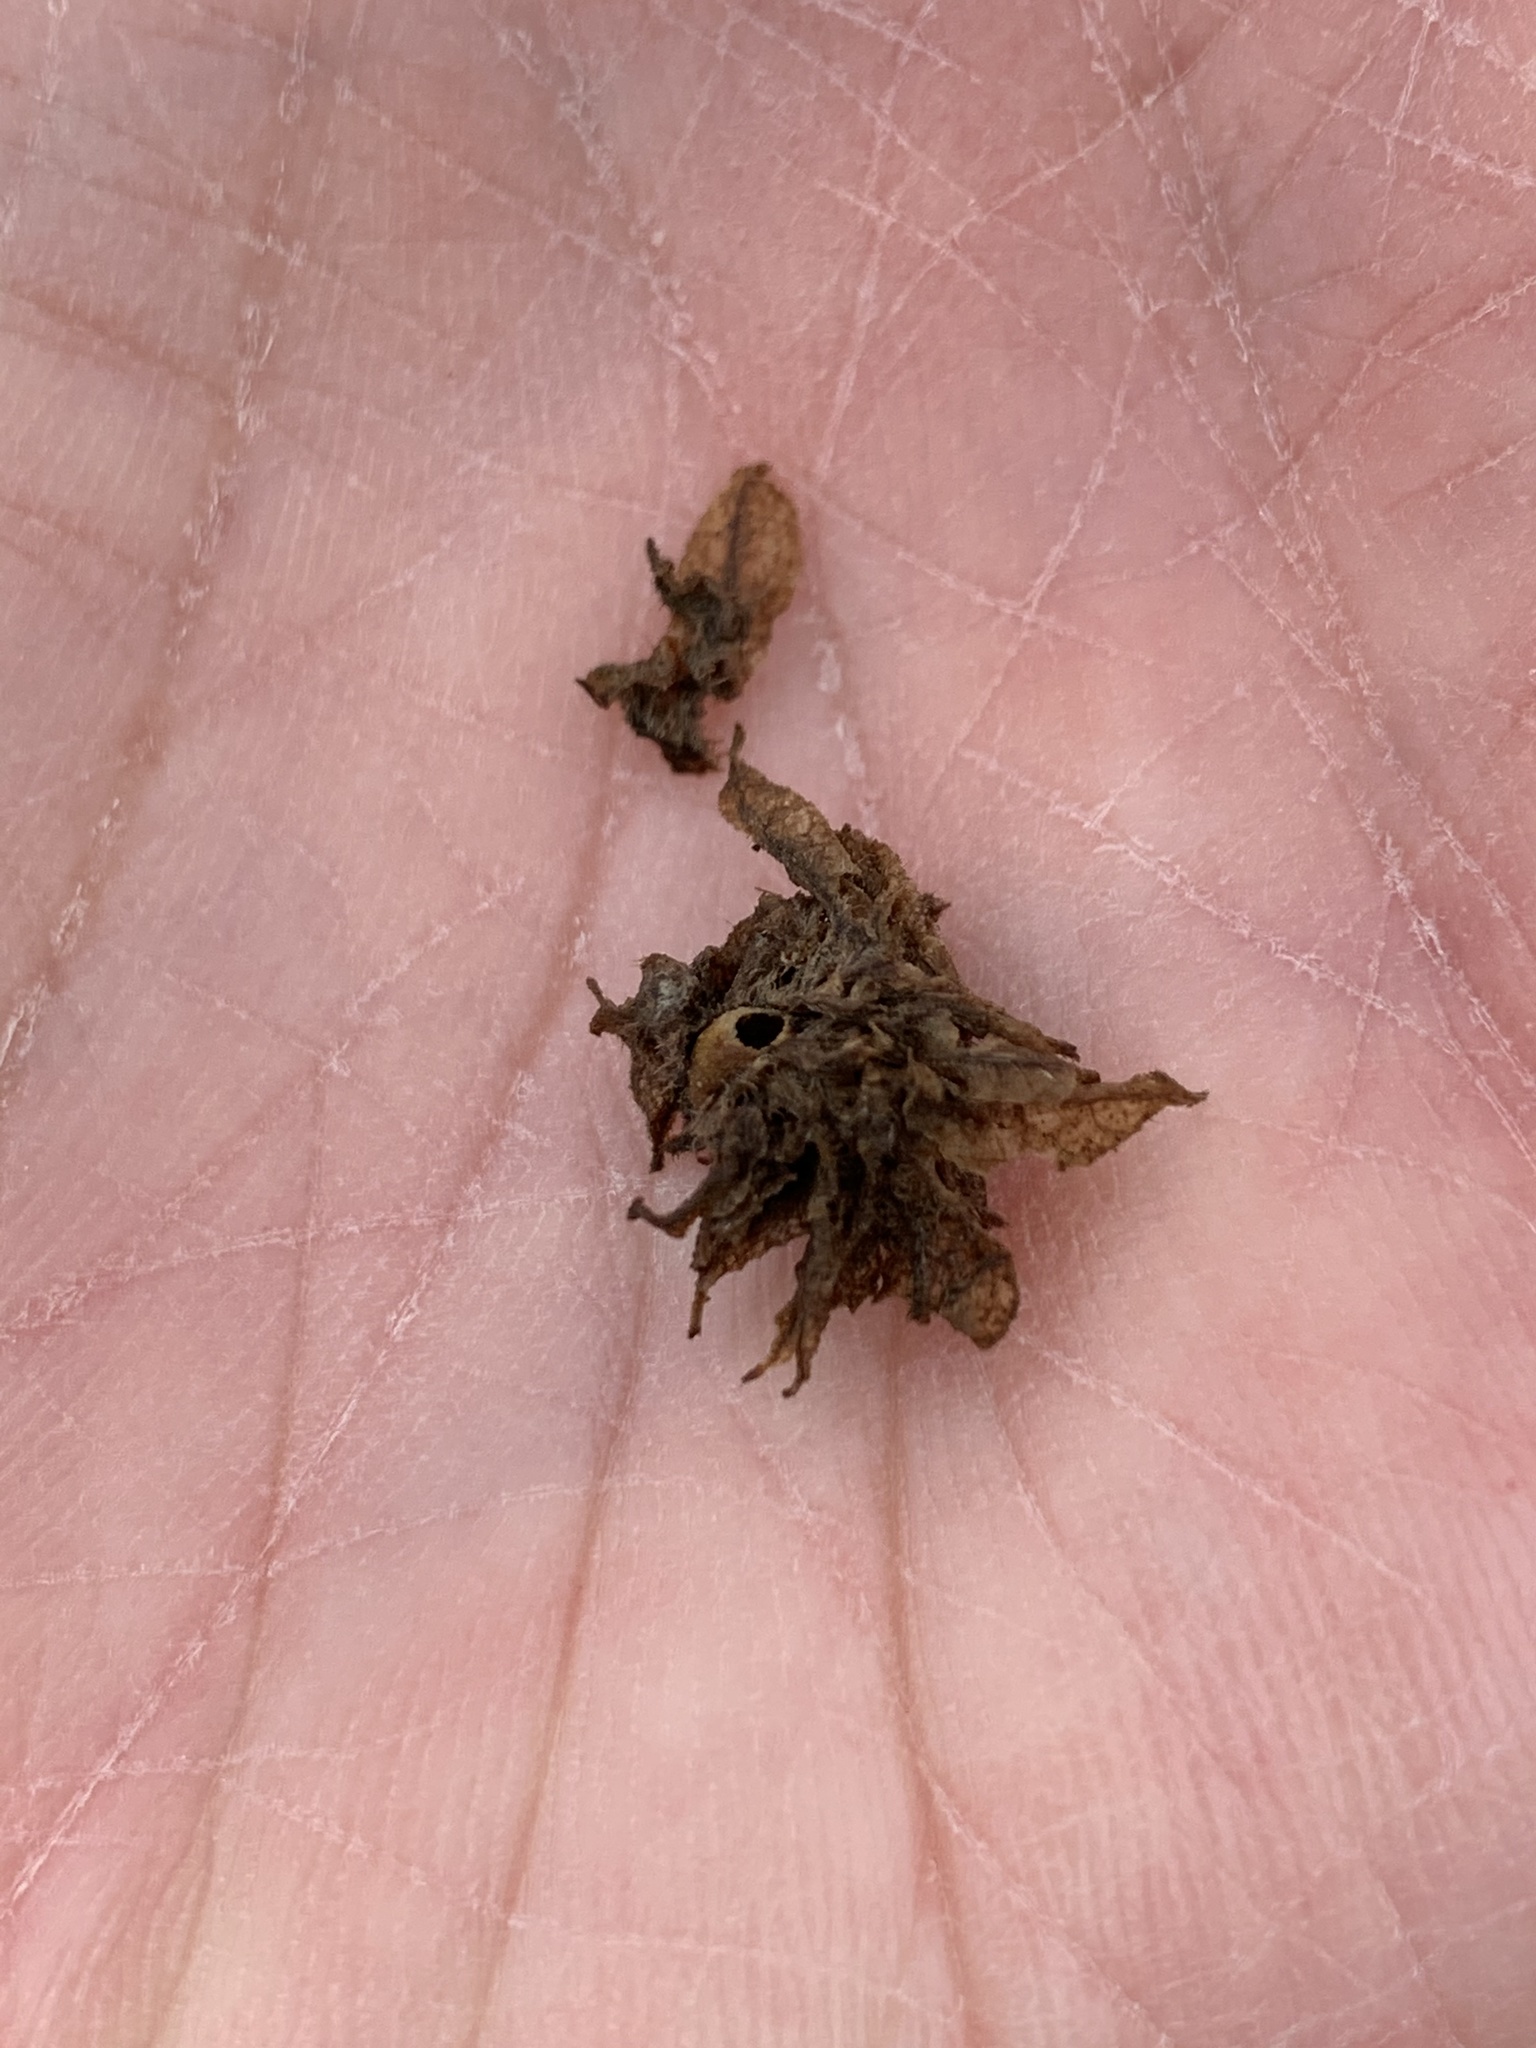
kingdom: Animalia
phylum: Arthropoda
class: Insecta
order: Hymenoptera
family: Cynipidae
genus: Dryocosmus
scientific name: Dryocosmus
